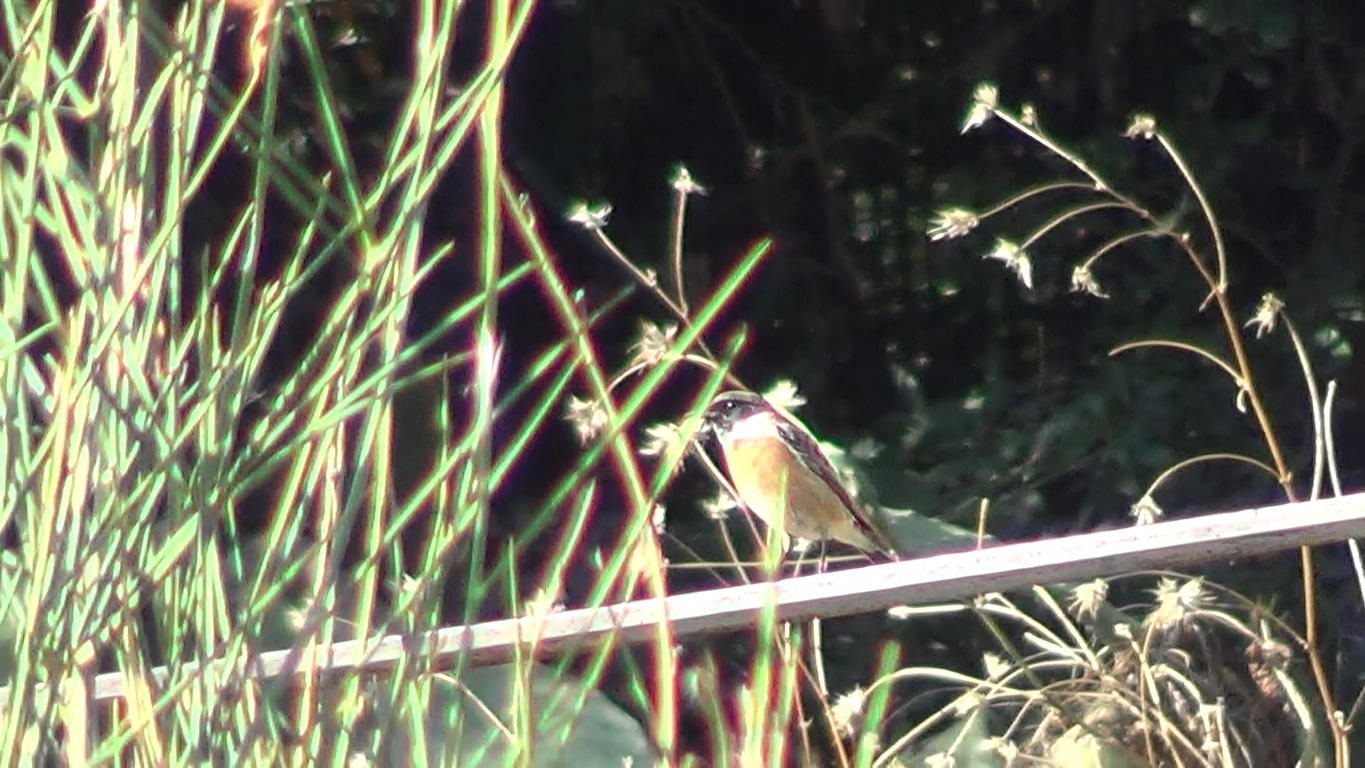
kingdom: Animalia
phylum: Chordata
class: Aves
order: Passeriformes
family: Muscicapidae
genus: Saxicola
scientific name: Saxicola rubicola
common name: European stonechat
